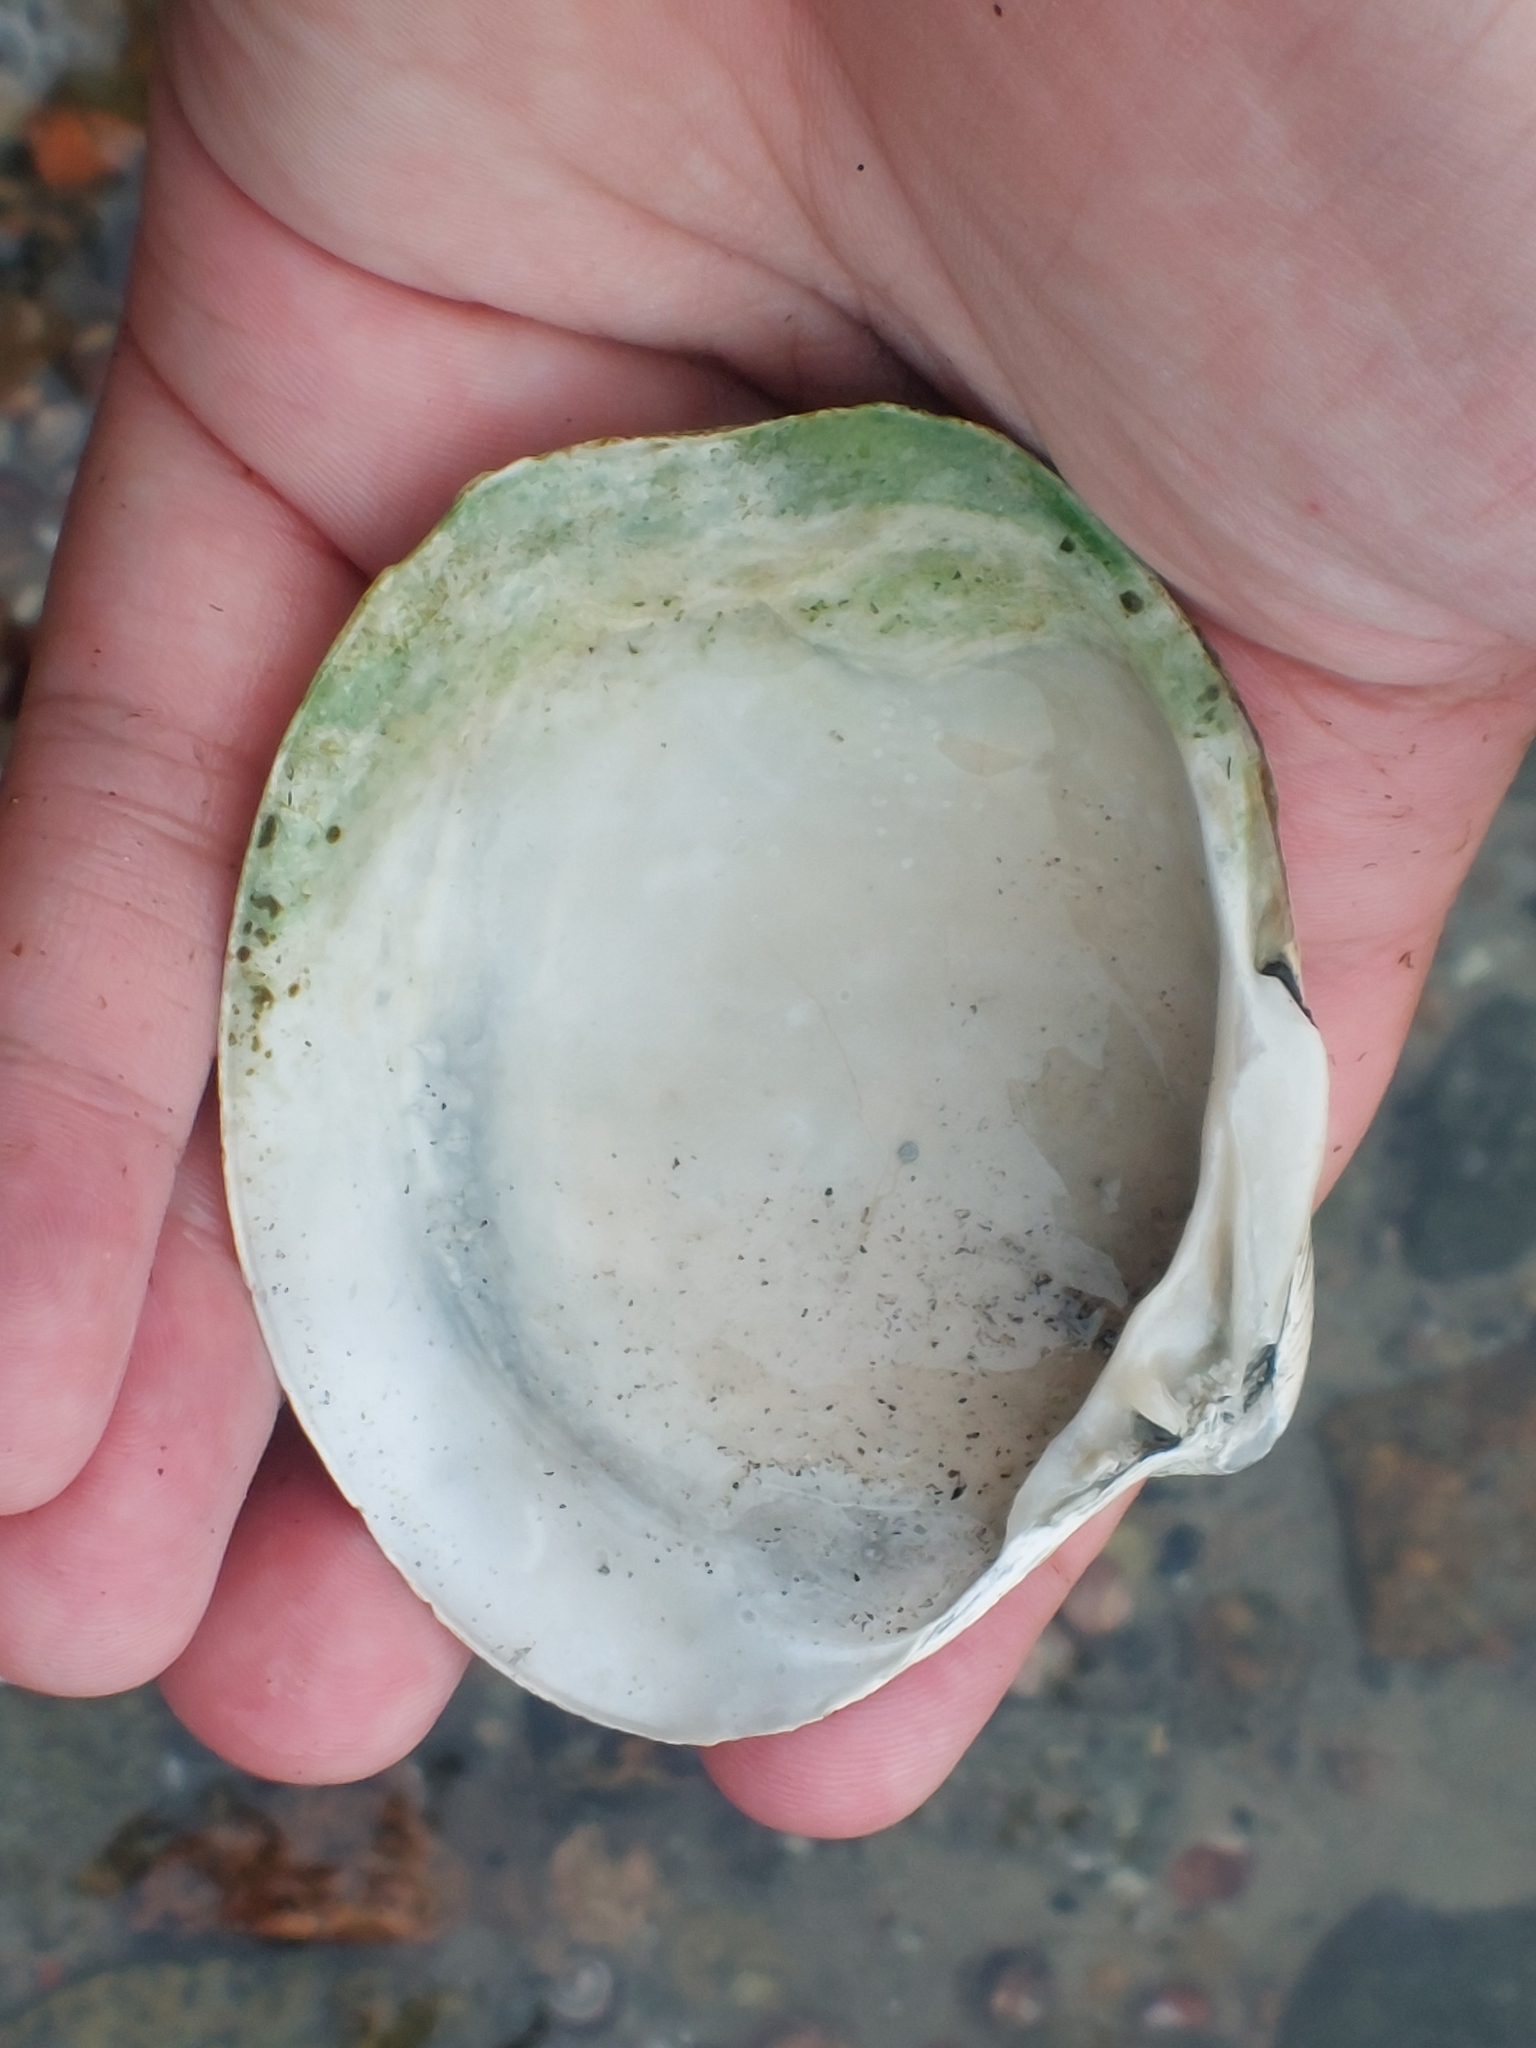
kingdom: Animalia
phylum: Mollusca
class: Bivalvia
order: Venerida
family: Arcticidae
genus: Arctica
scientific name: Arctica islandica
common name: Icelandic cyprine
